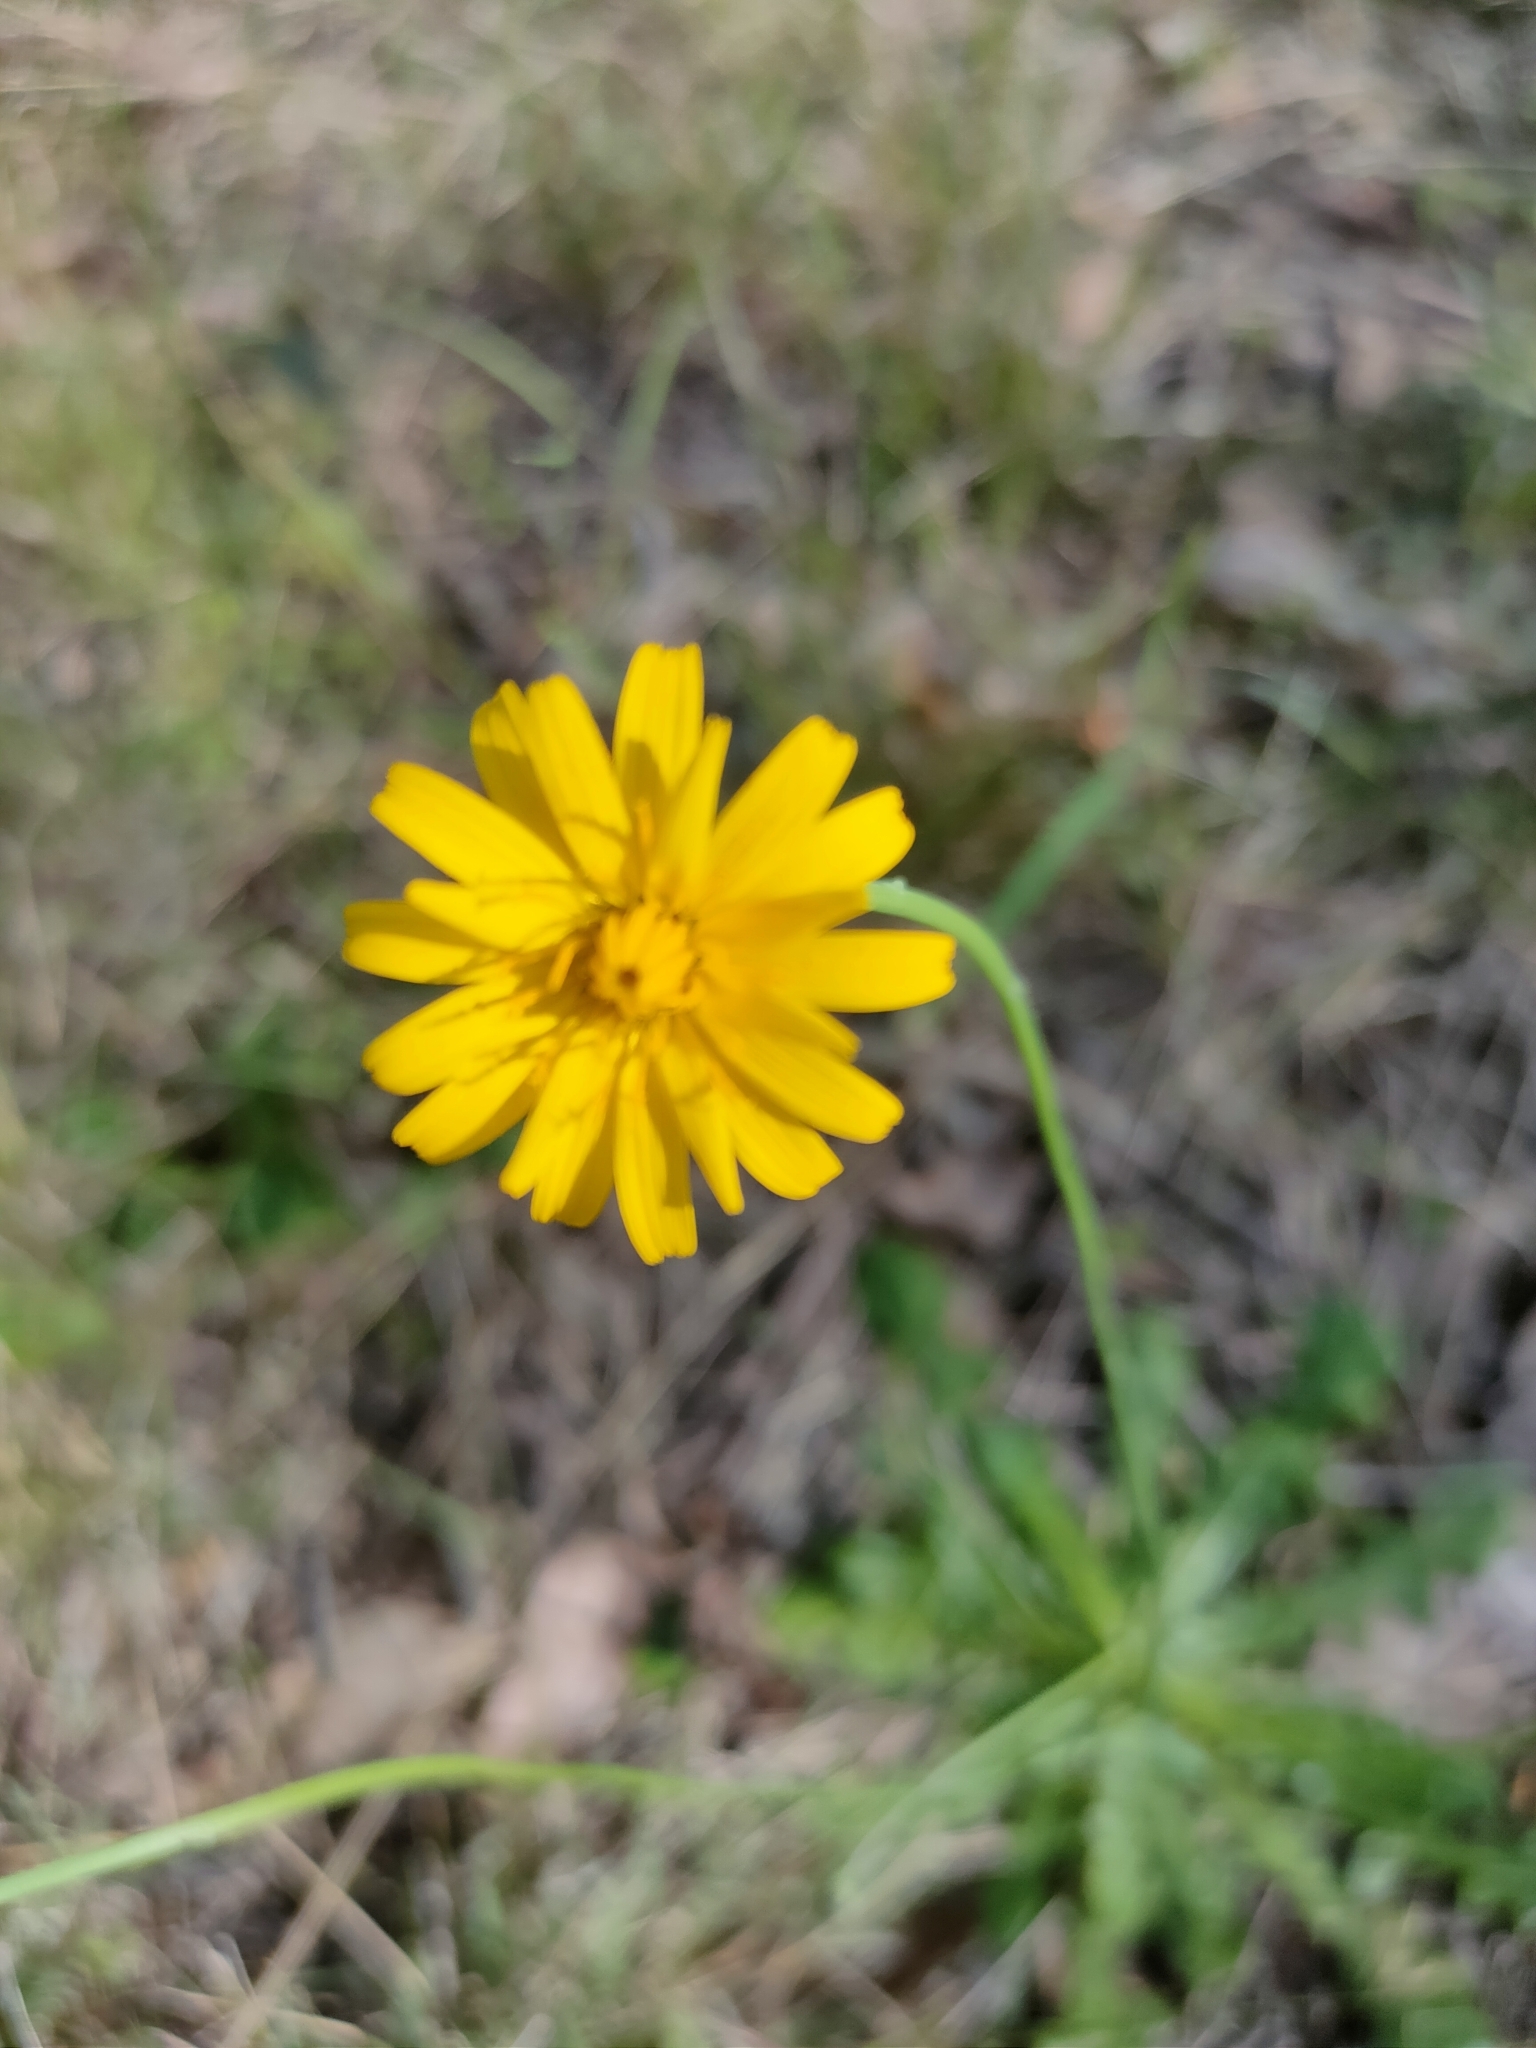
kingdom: Plantae
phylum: Tracheophyta
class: Magnoliopsida
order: Asterales
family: Asteraceae
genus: Hypochaeris
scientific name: Hypochaeris radicata
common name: Flatweed
